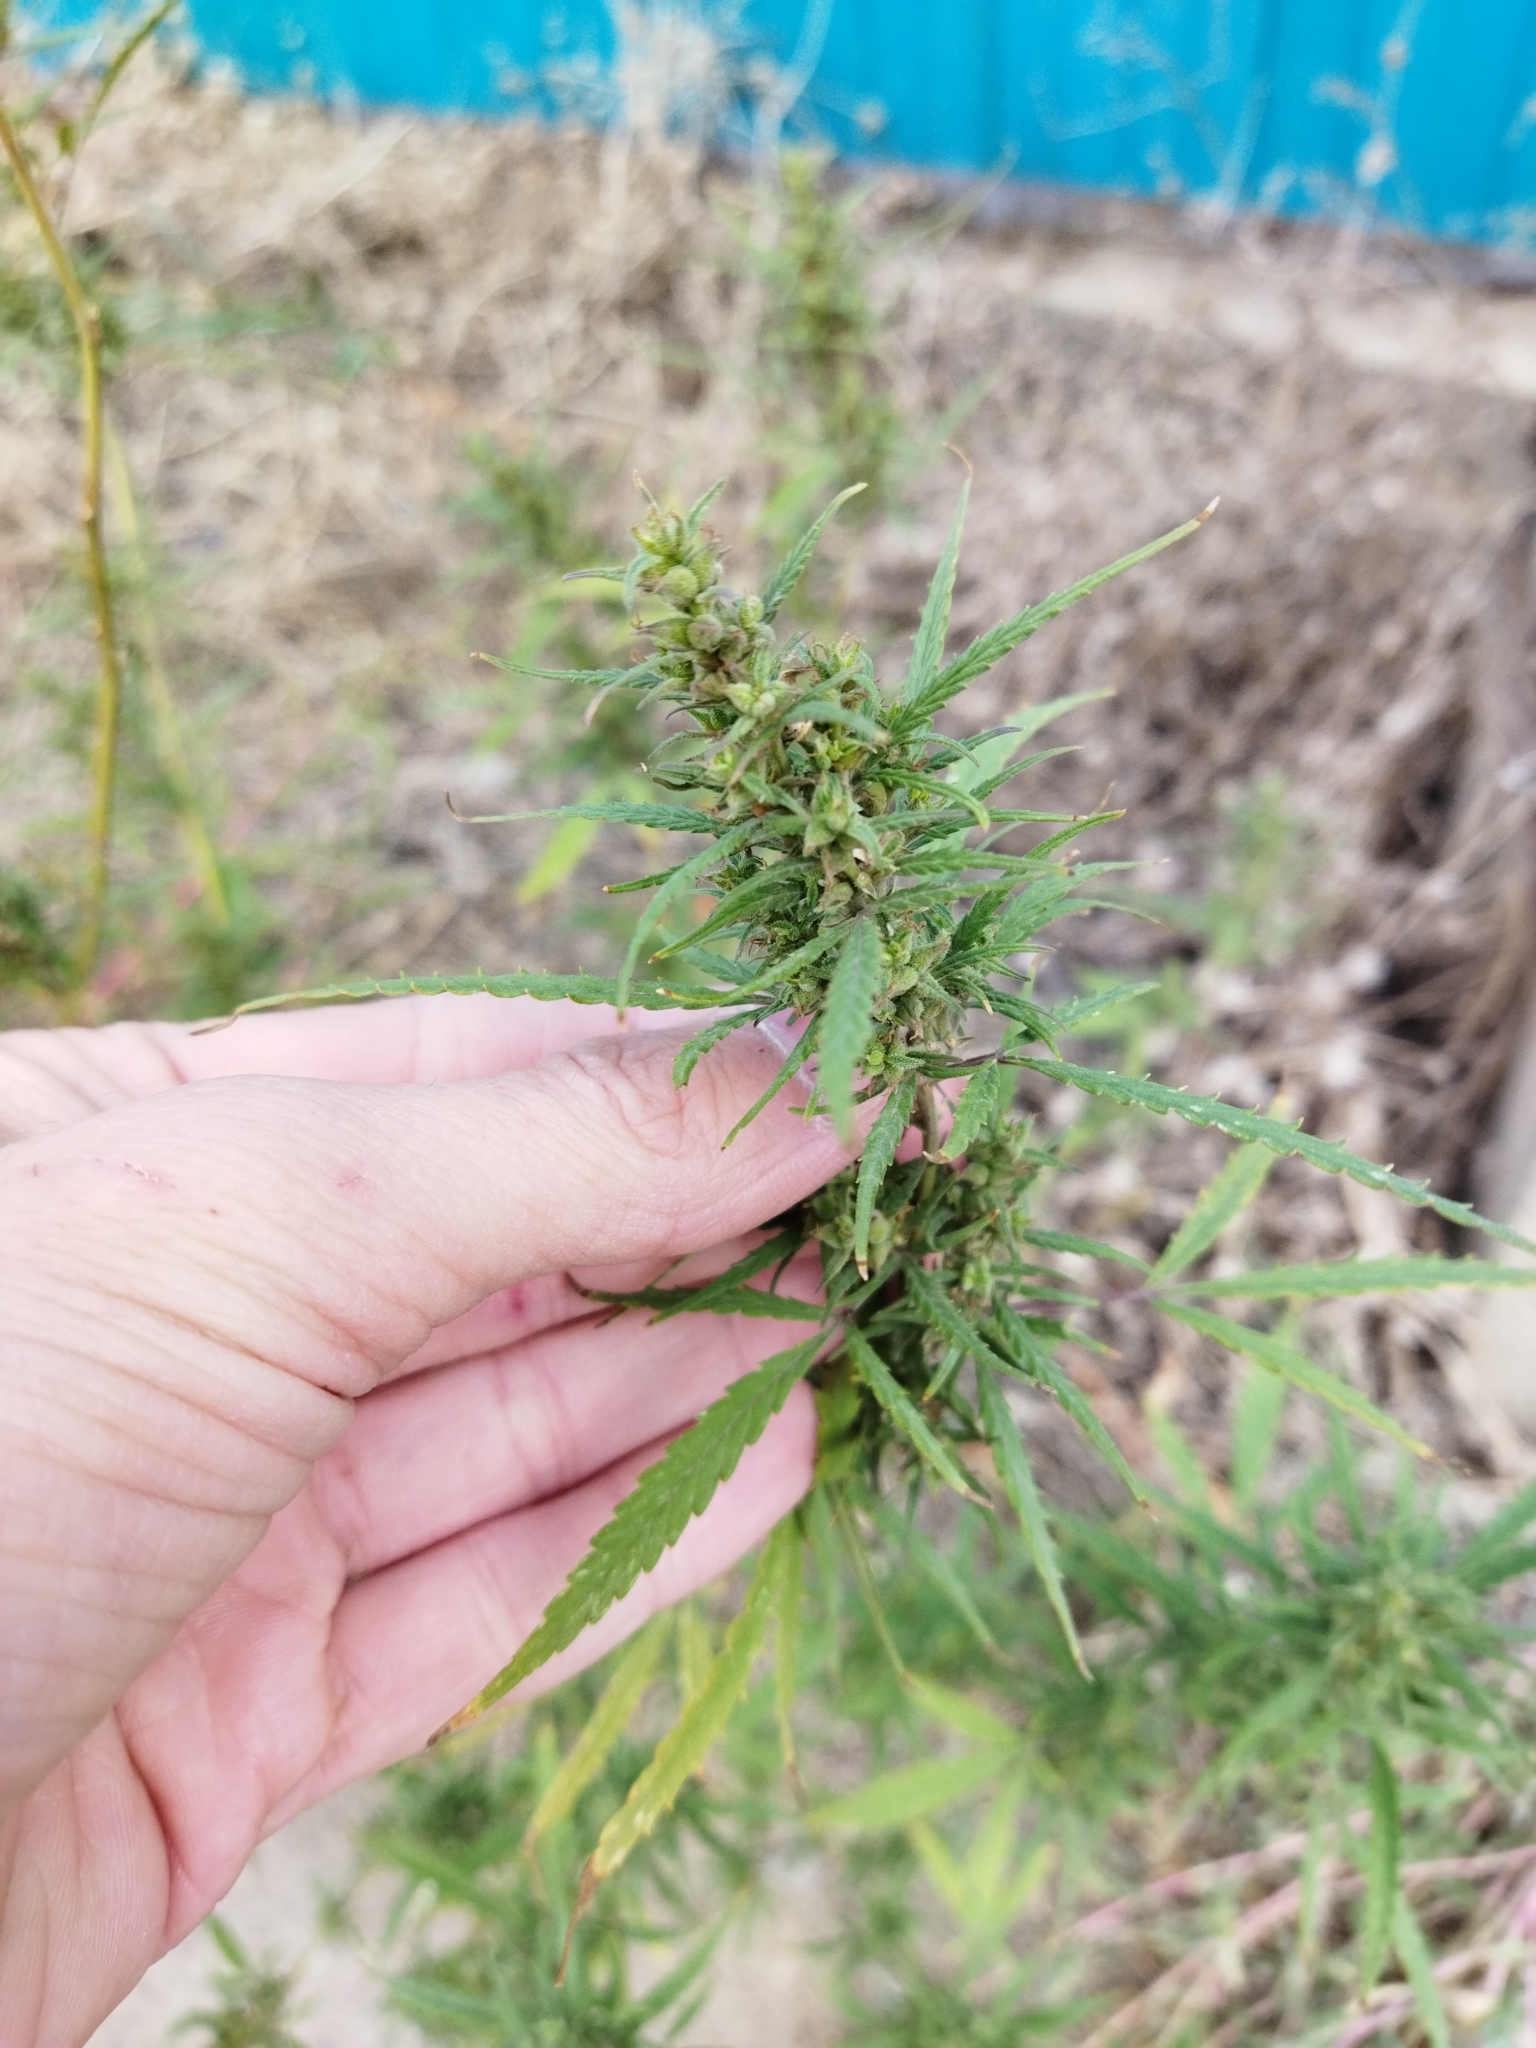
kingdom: Plantae
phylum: Tracheophyta
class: Magnoliopsida
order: Rosales
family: Cannabaceae
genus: Cannabis
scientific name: Cannabis sativa
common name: Hemp
